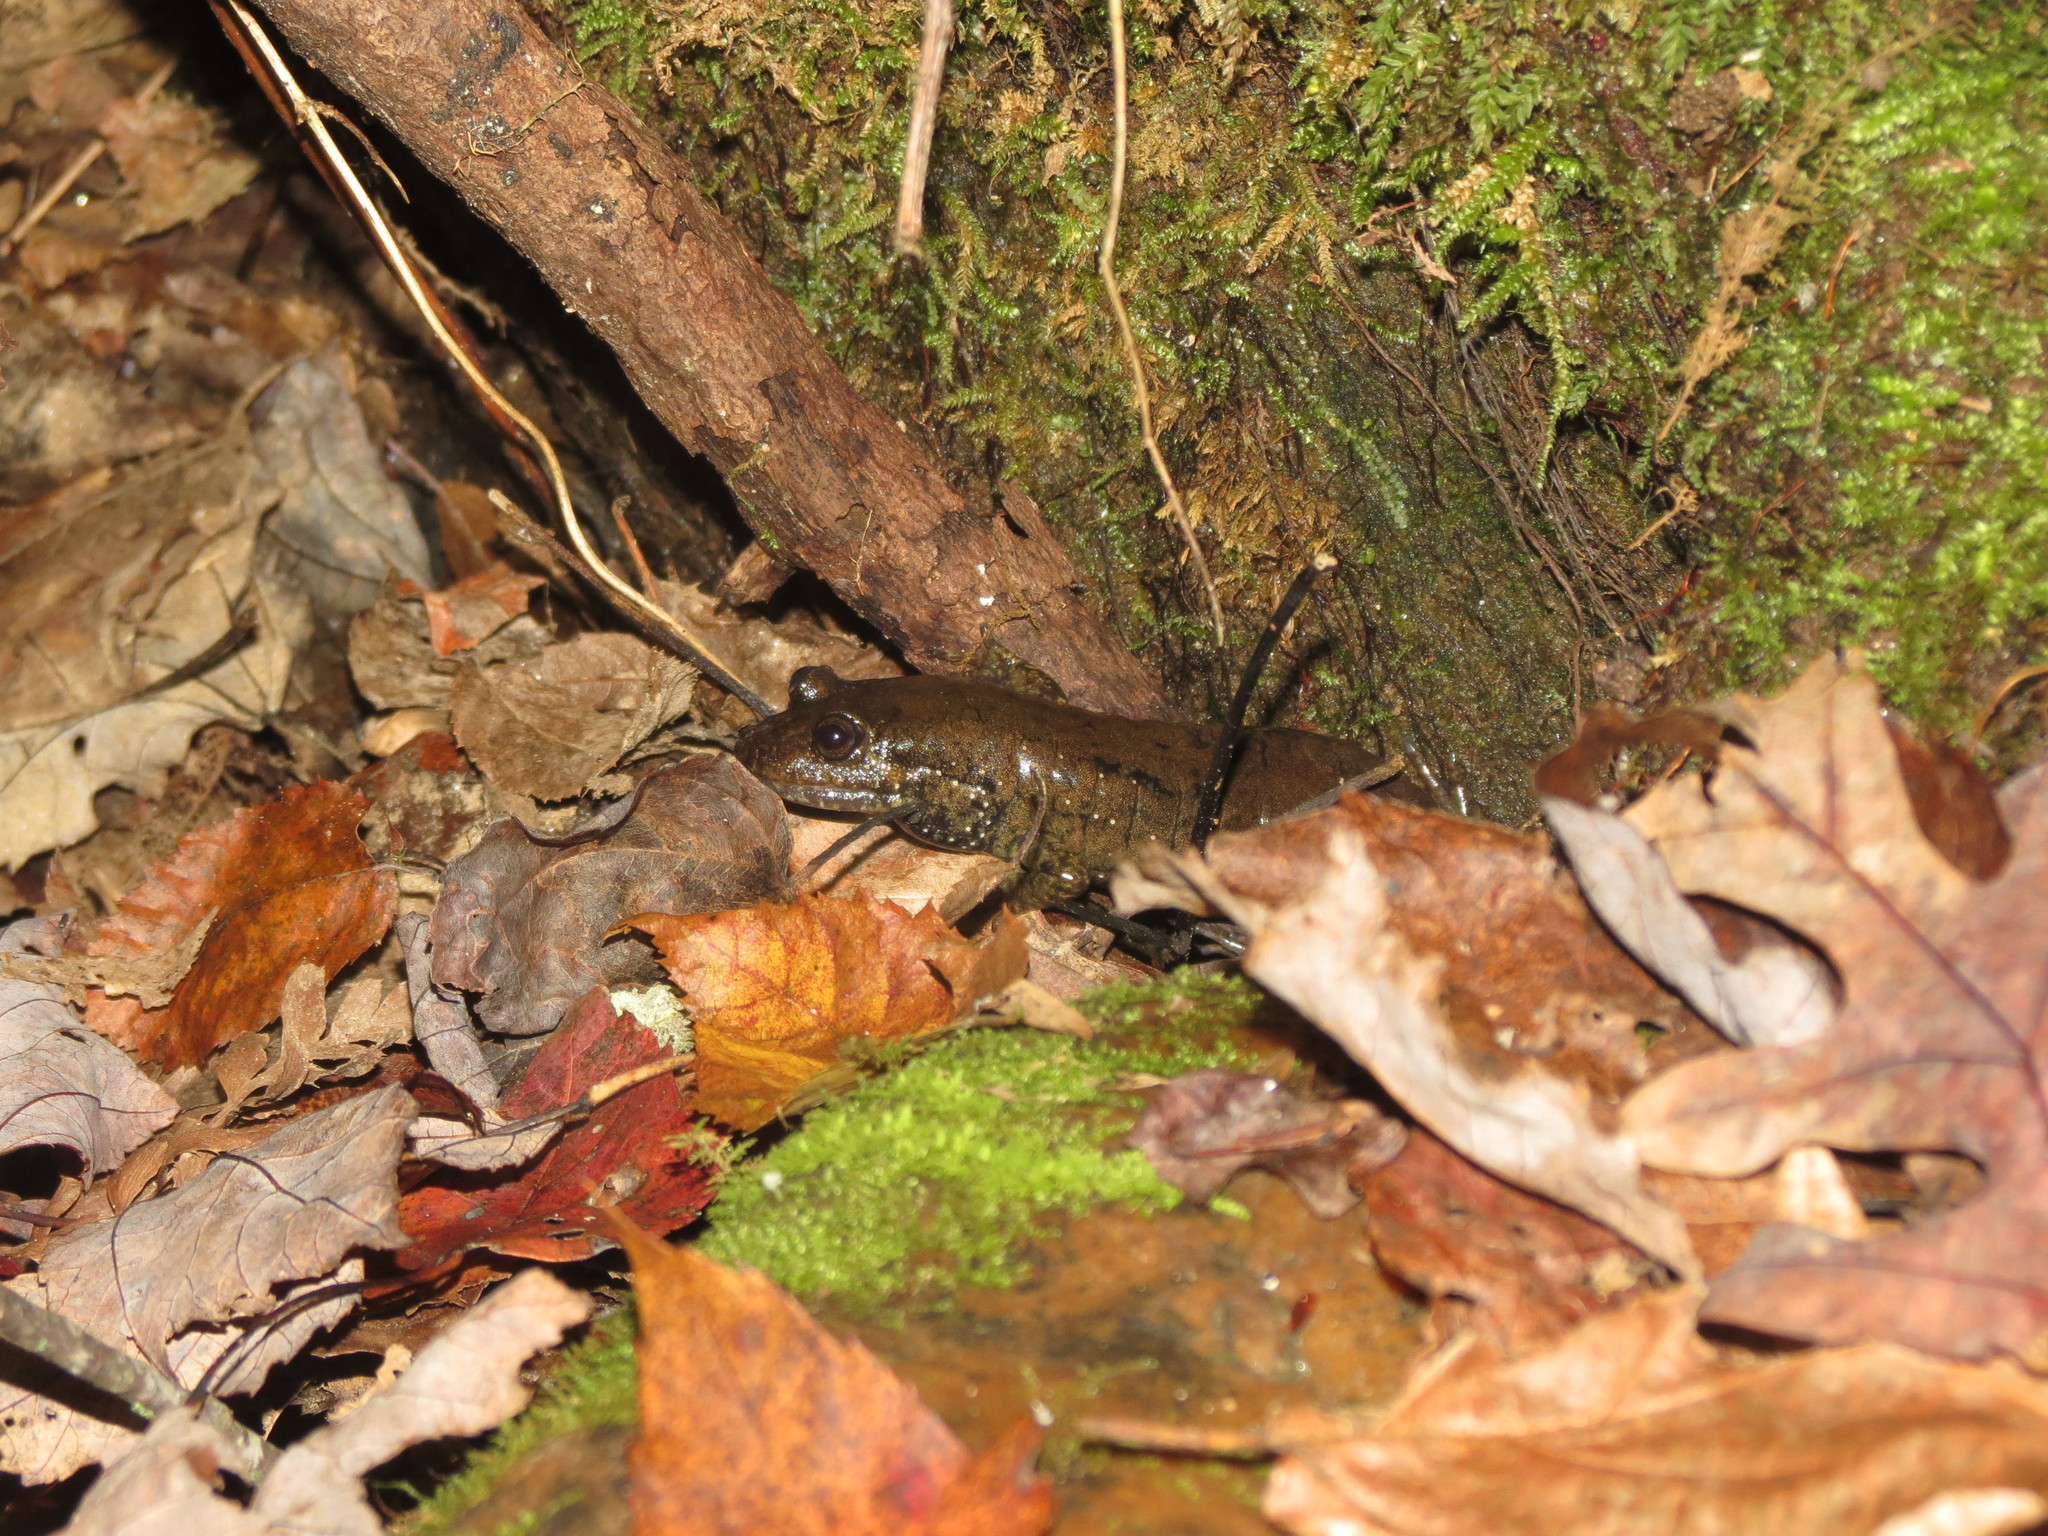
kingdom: Animalia
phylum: Chordata
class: Amphibia
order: Caudata
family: Plethodontidae
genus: Desmognathus
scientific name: Desmognathus
